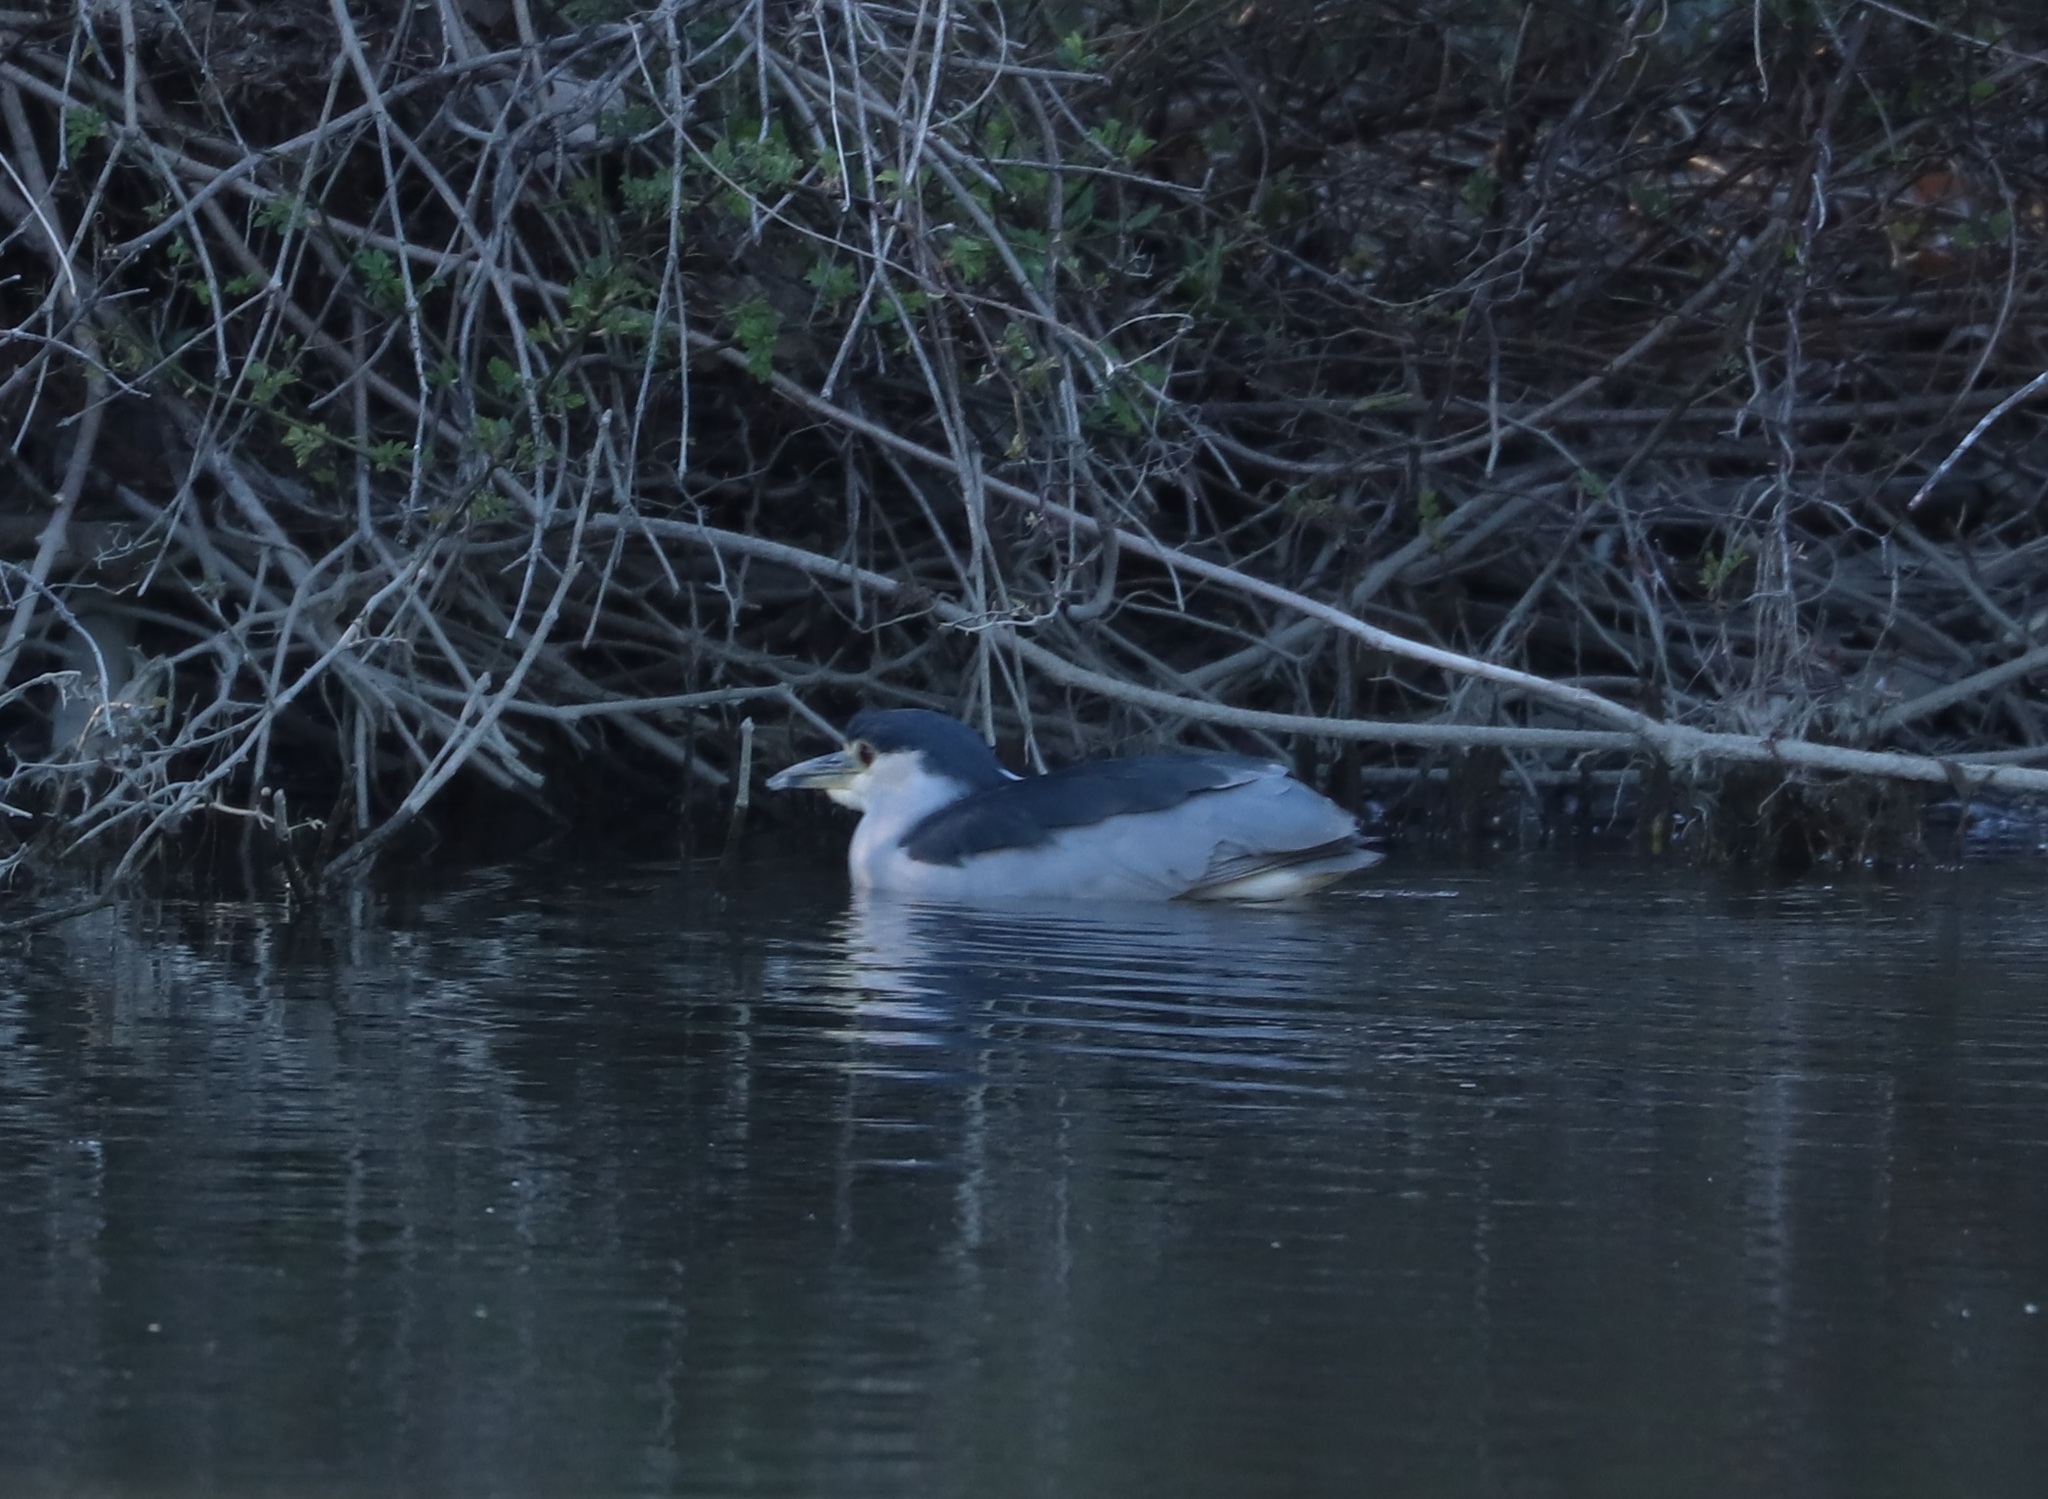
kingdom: Animalia
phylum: Chordata
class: Aves
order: Pelecaniformes
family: Ardeidae
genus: Nycticorax
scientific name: Nycticorax nycticorax
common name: Black-crowned night heron
